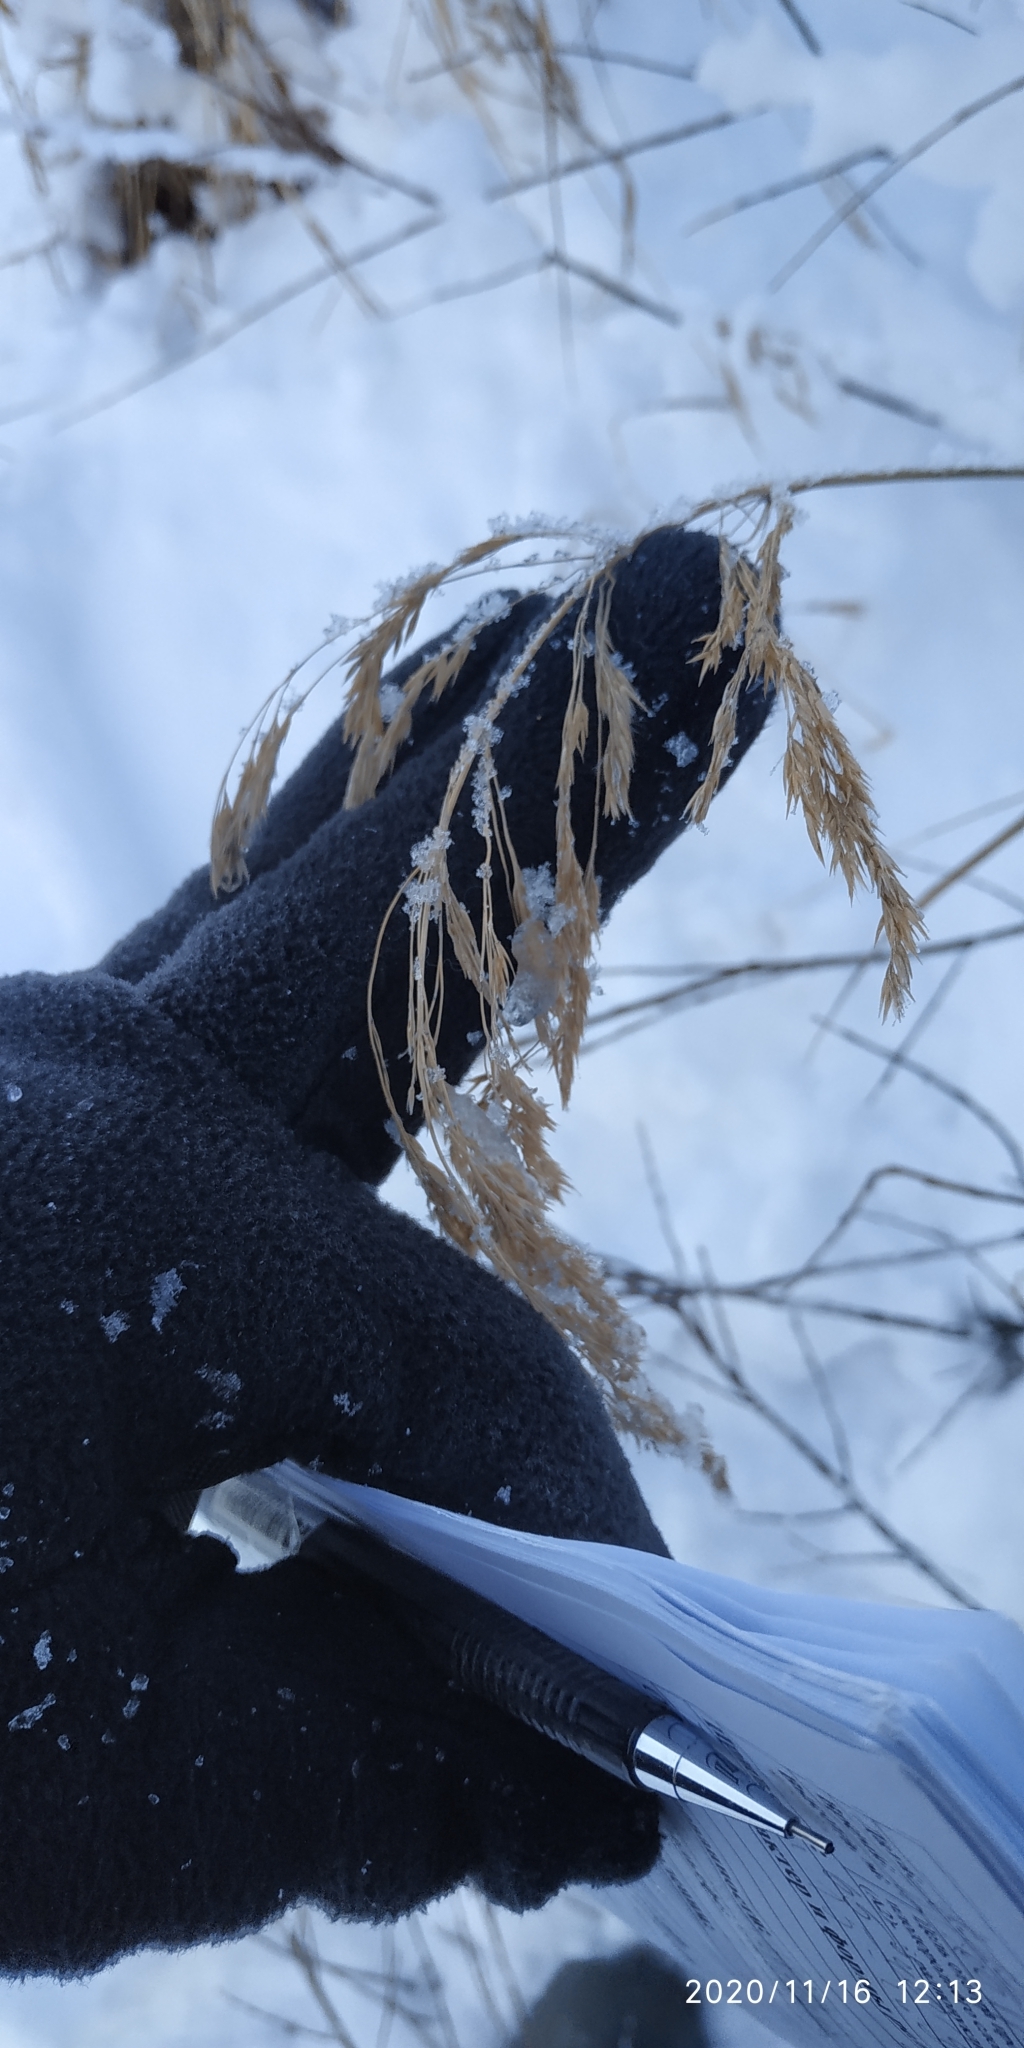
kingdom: Plantae
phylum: Tracheophyta
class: Liliopsida
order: Poales
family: Poaceae
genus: Calamagrostis
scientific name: Calamagrostis purpurea
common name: Scandinavian small-reed
